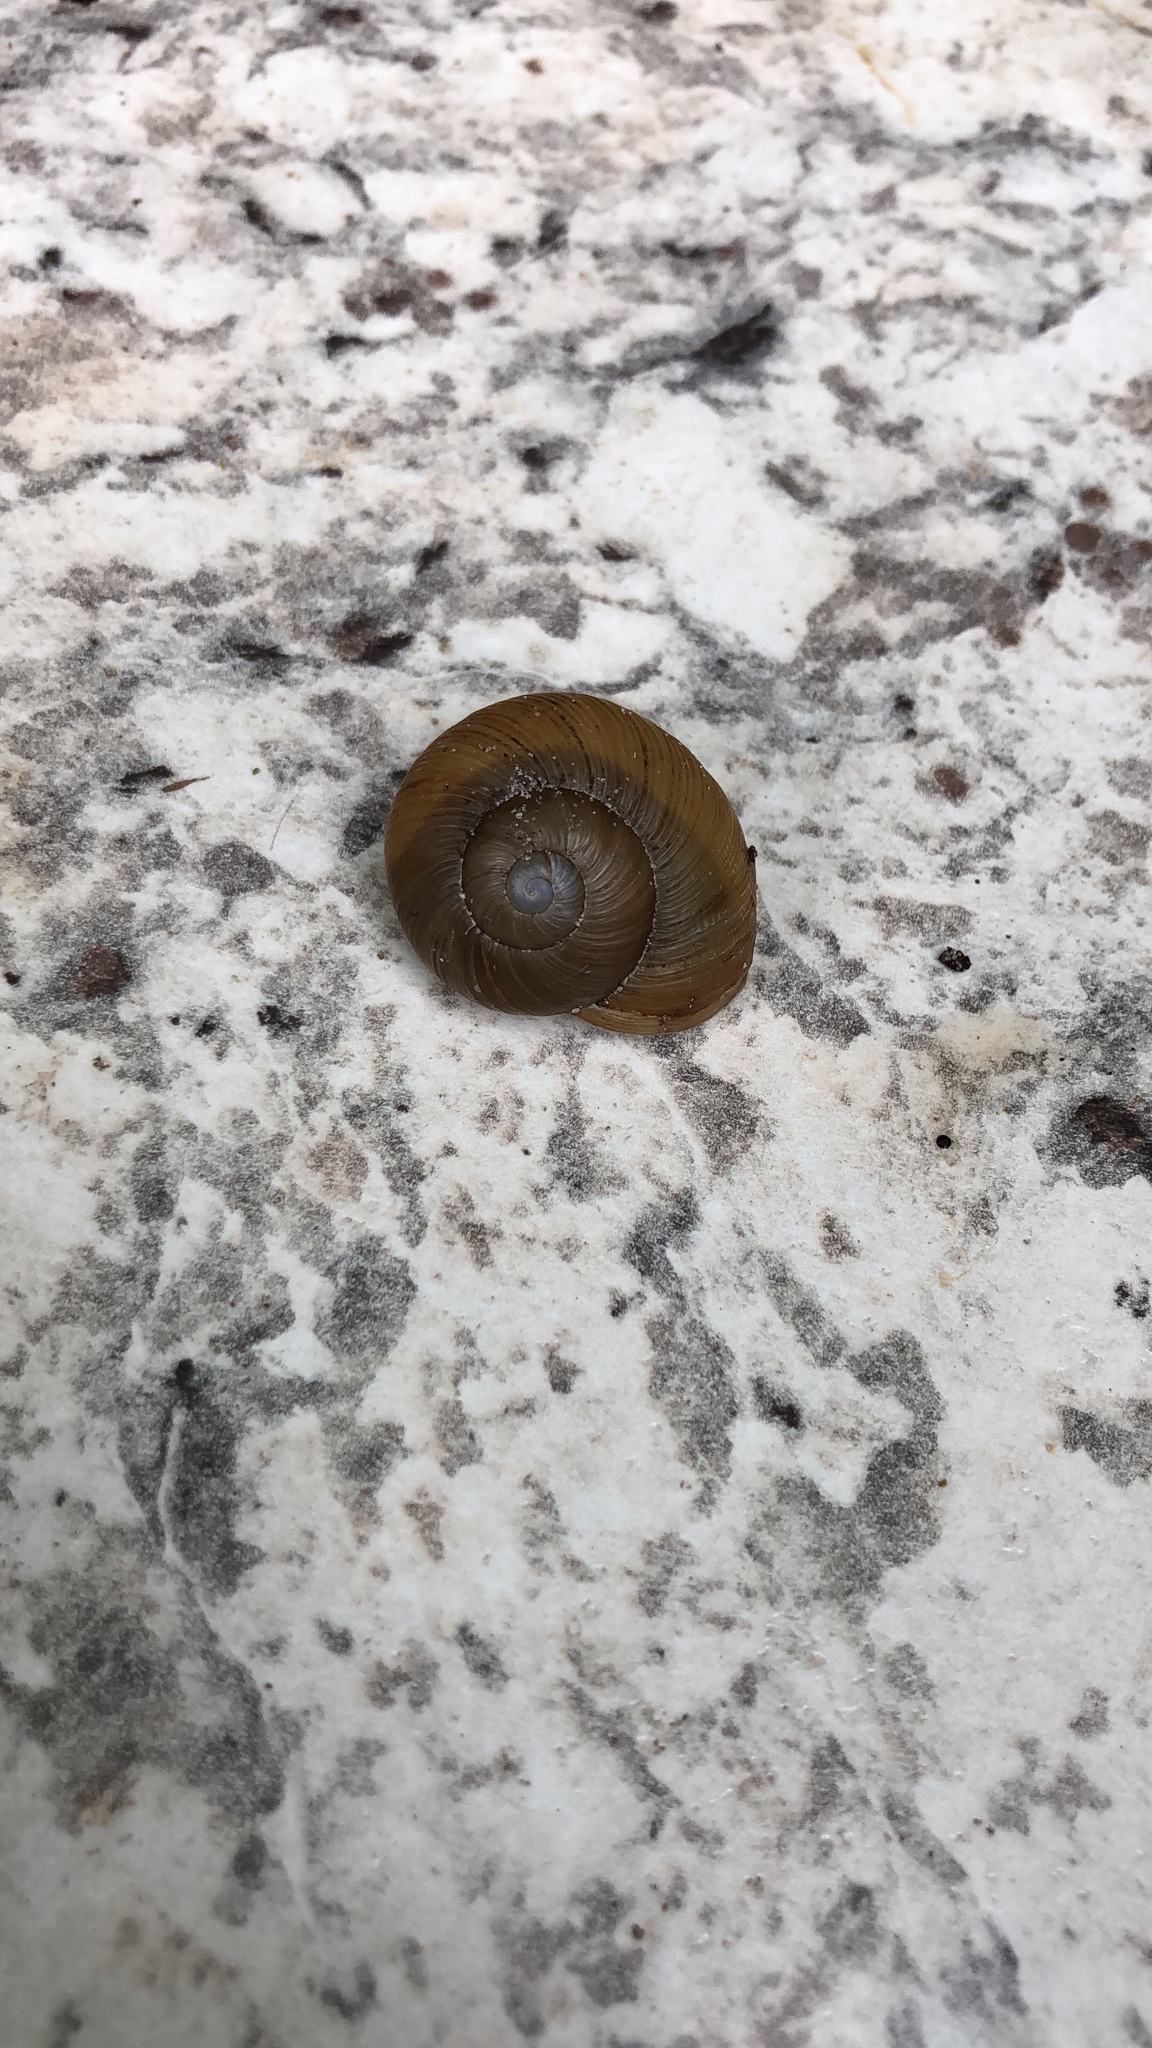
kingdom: Animalia
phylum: Mollusca
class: Gastropoda
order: Stylommatophora
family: Zachrysiidae
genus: Zachrysia
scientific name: Zachrysia provisoria
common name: Garden zachrysia
